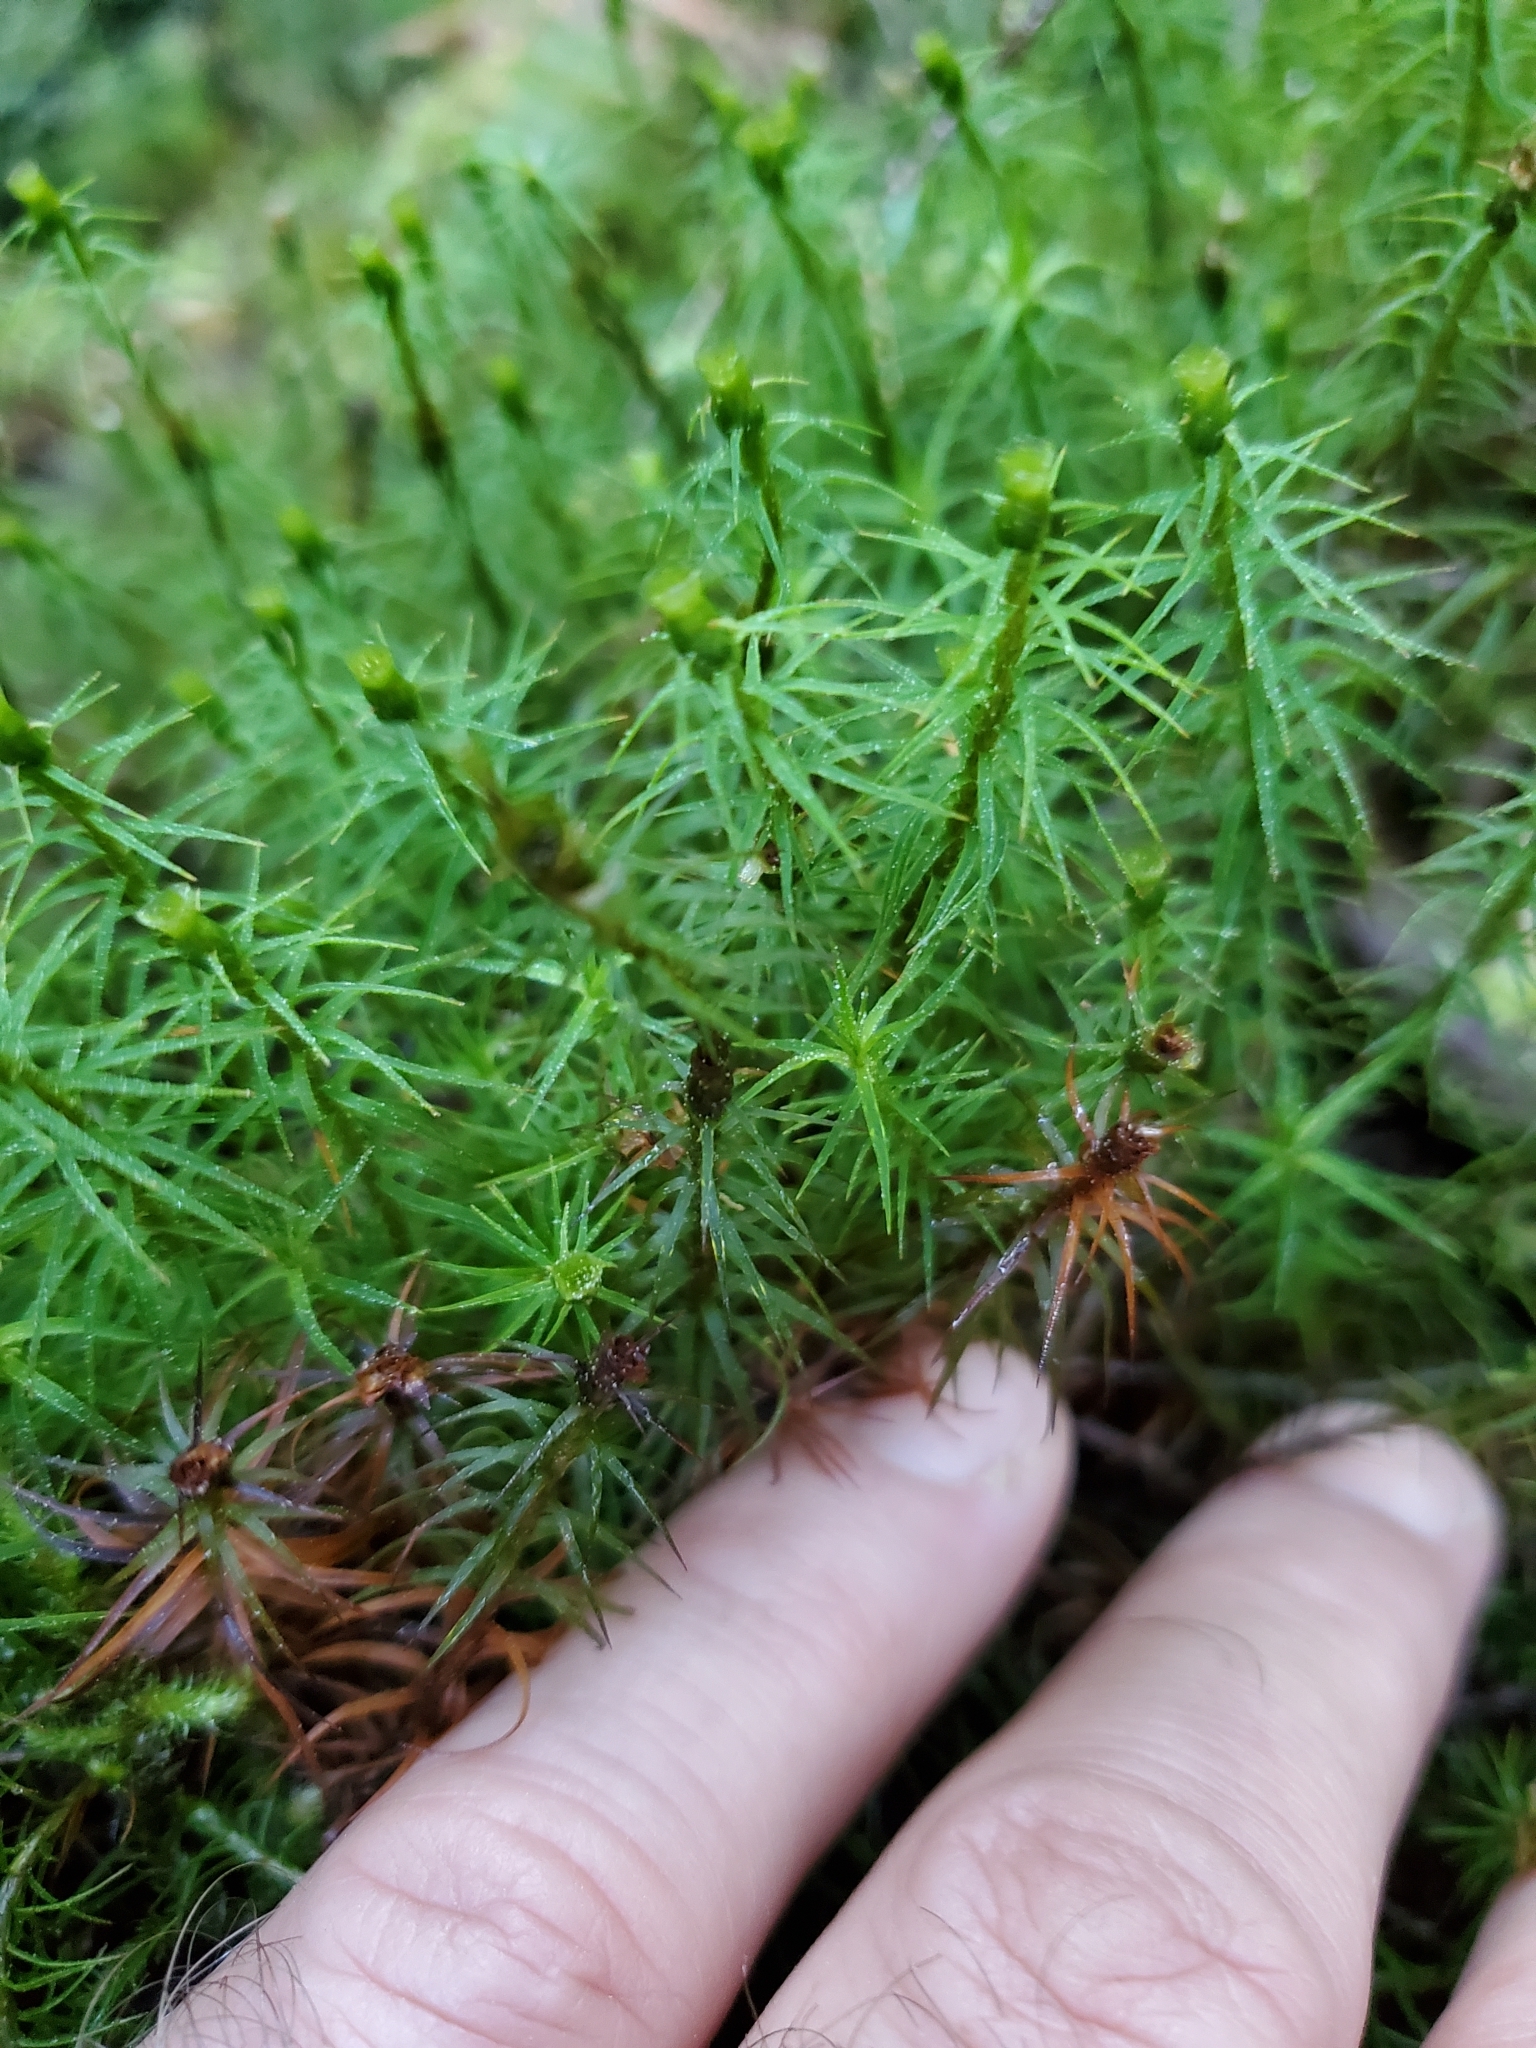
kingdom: Plantae
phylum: Bryophyta
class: Polytrichopsida
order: Polytrichales
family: Polytrichaceae
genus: Polytrichastrum
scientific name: Polytrichastrum alpinum
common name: Alpine haircap
